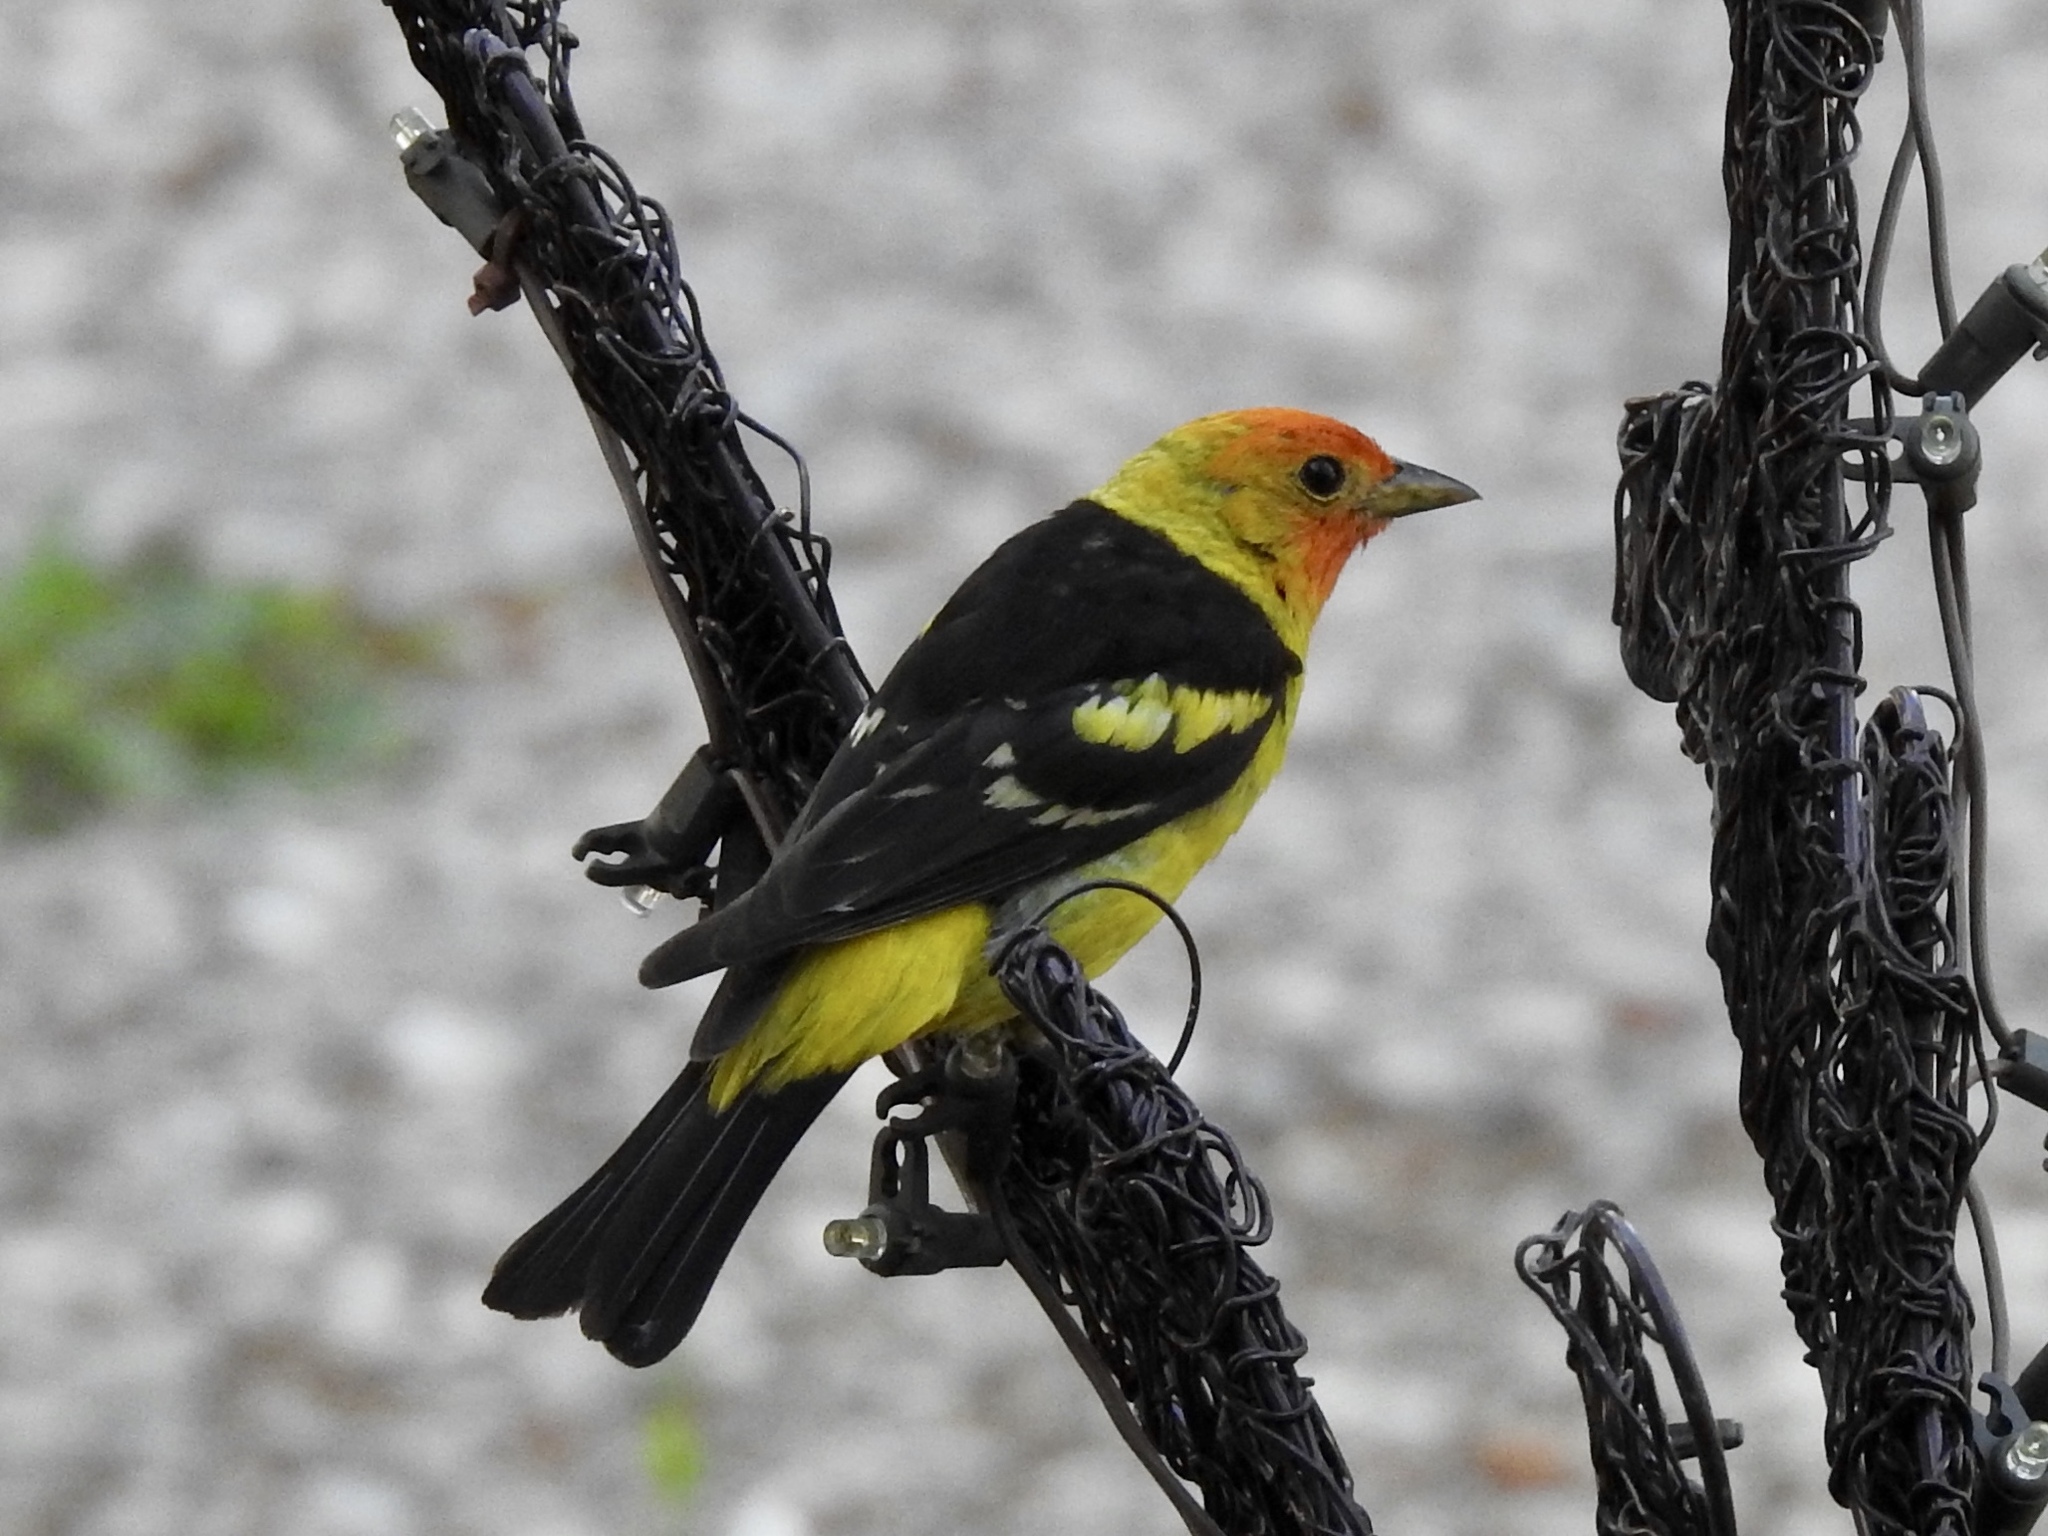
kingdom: Animalia
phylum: Chordata
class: Aves
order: Passeriformes
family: Cardinalidae
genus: Piranga
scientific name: Piranga ludoviciana
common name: Western tanager
